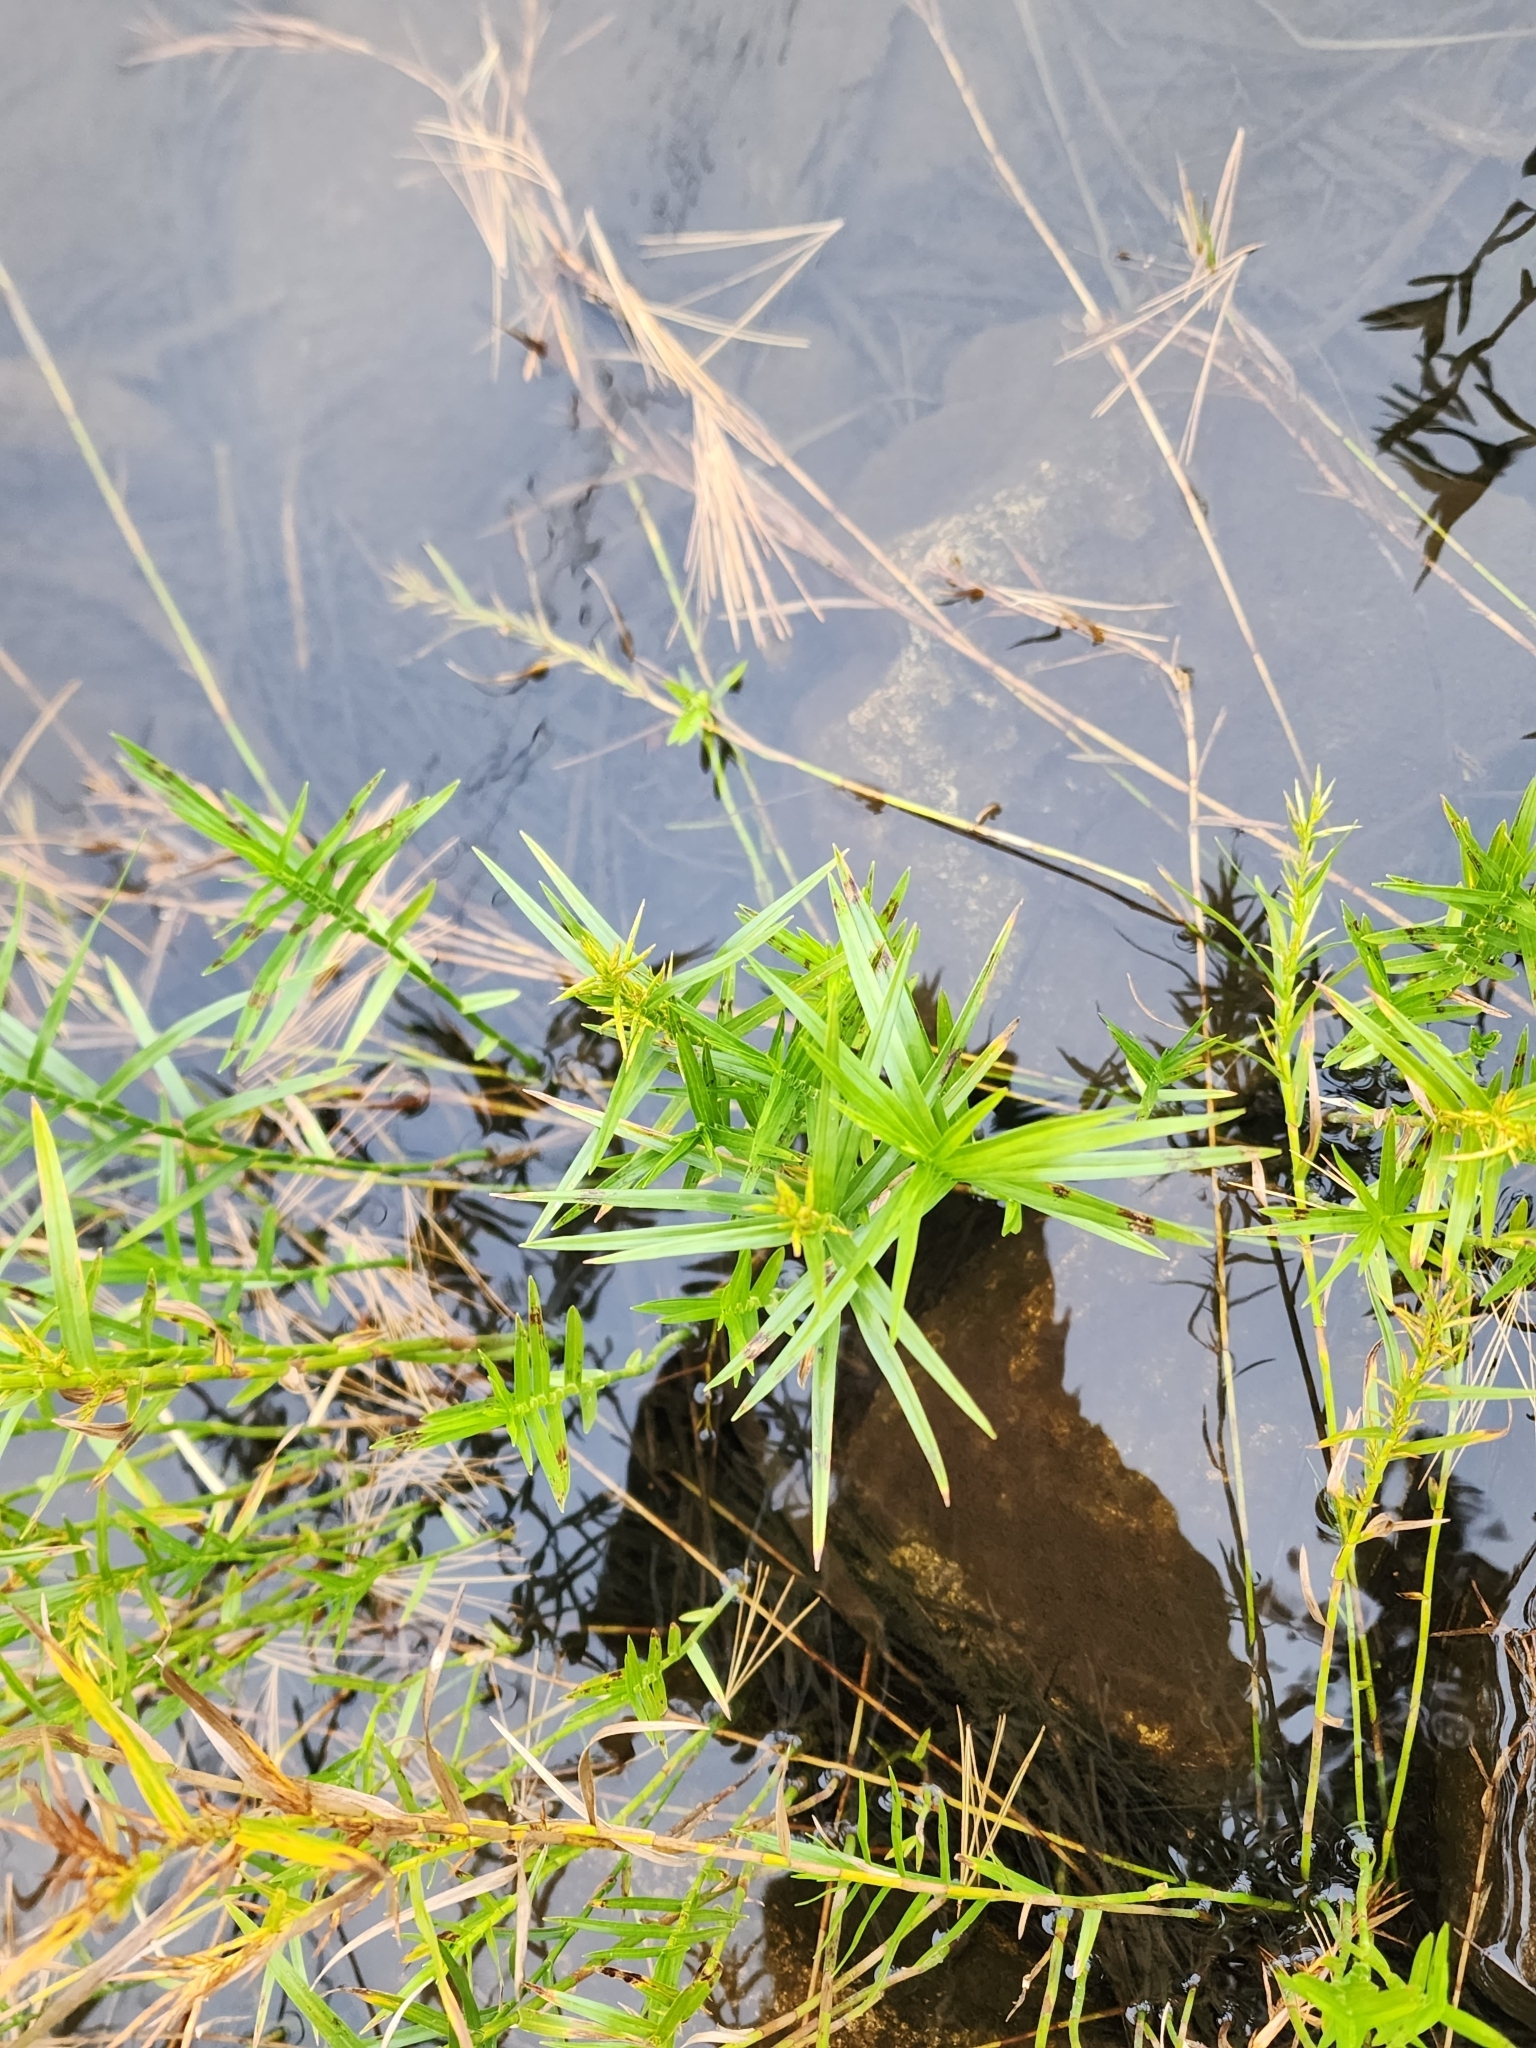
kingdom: Plantae
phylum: Tracheophyta
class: Liliopsida
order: Poales
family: Cyperaceae
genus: Dulichium
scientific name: Dulichium arundinaceum
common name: Three-way sedge
